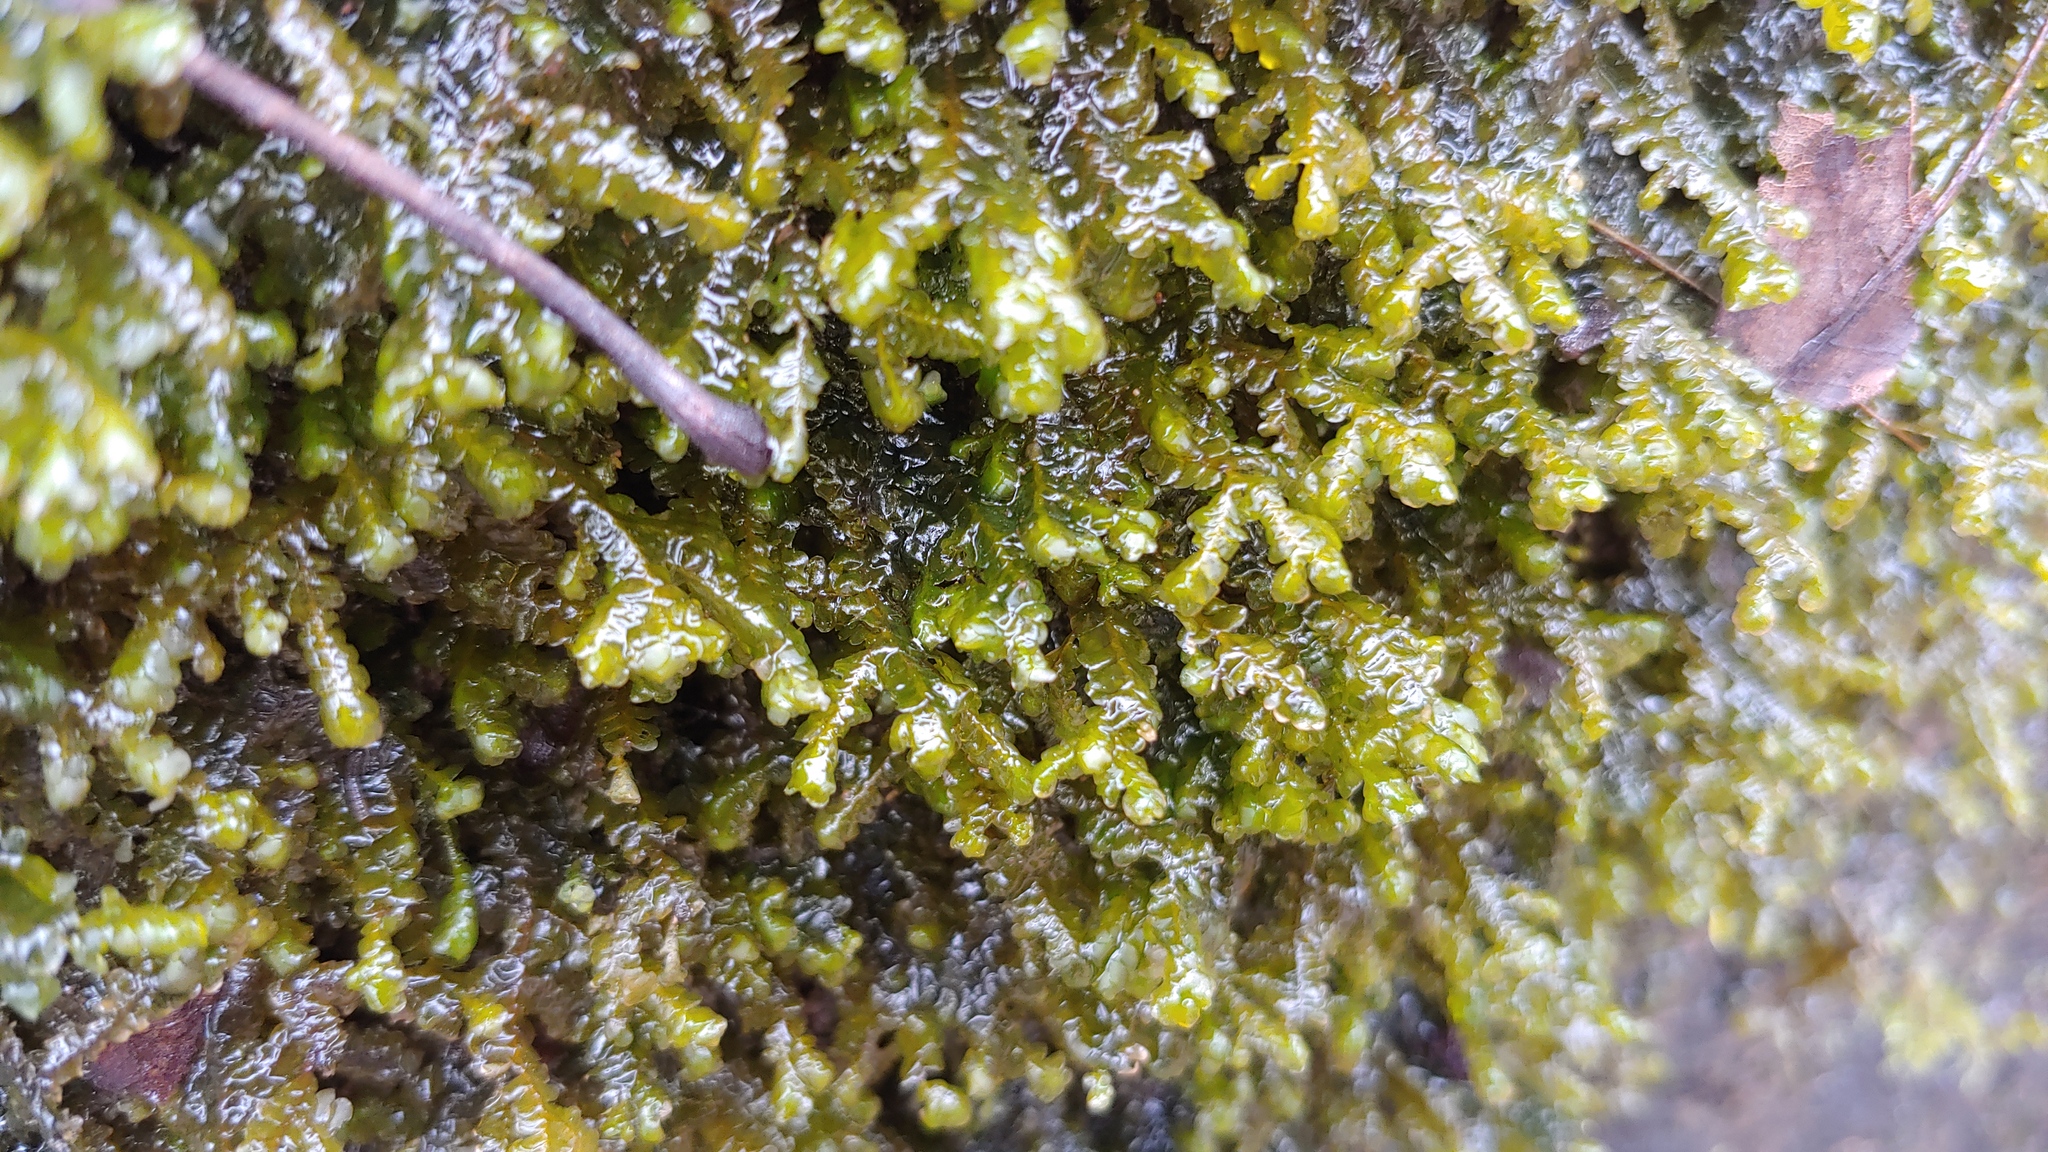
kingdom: Plantae
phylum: Marchantiophyta
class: Jungermanniopsida
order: Porellales
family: Porellaceae
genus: Porella
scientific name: Porella pinnata
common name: Pinnate scalewort
